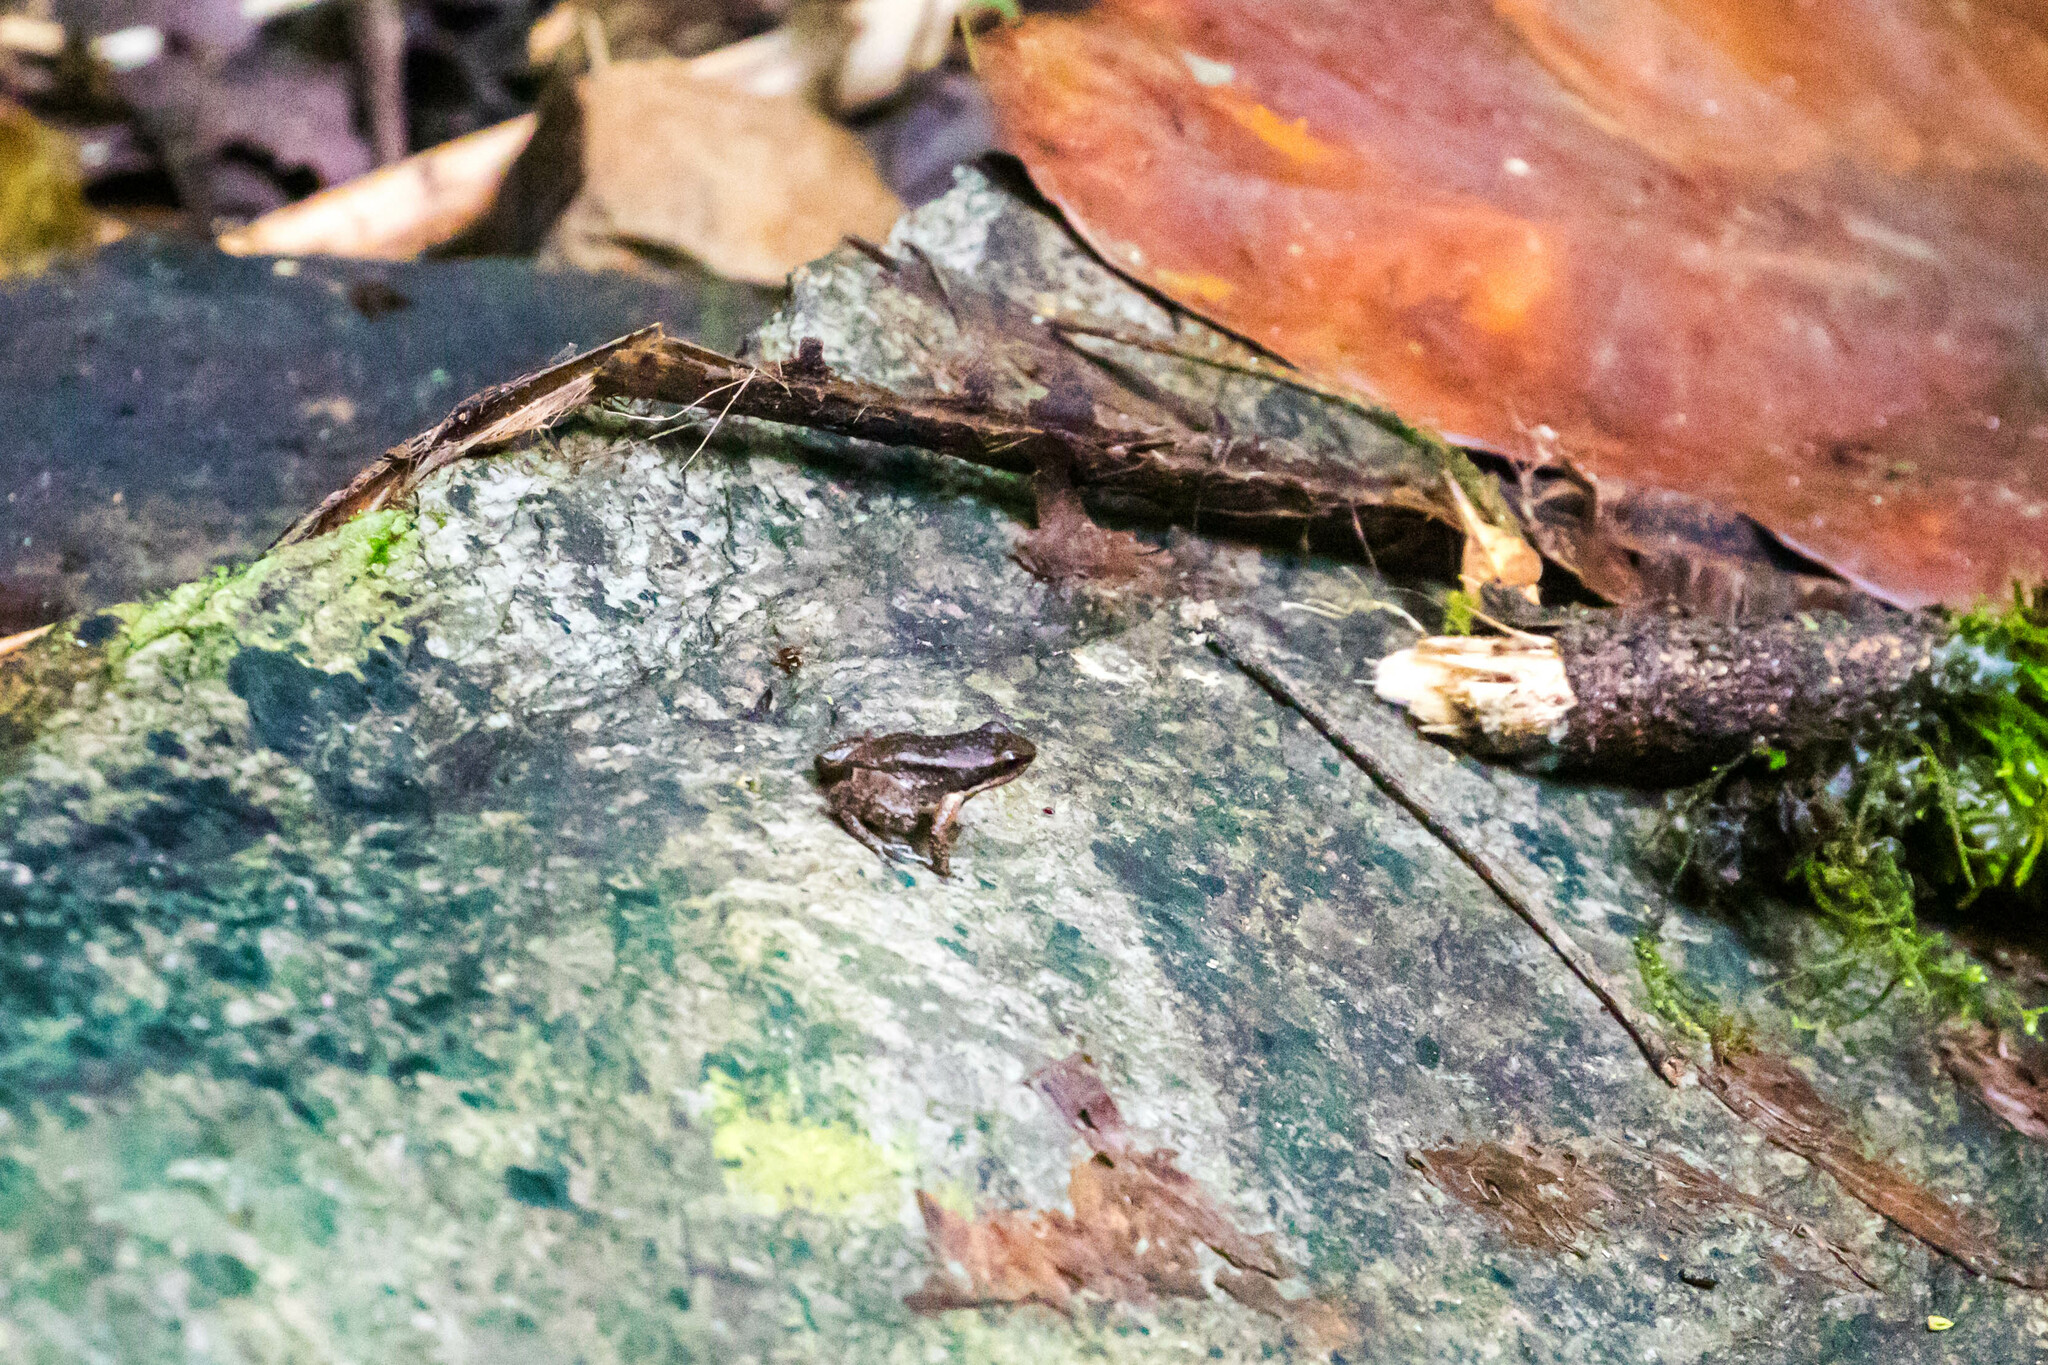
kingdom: Animalia
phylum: Chordata
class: Amphibia
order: Anura
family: Aromobatidae
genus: Mannophryne
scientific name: Mannophryne trinitatis
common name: Trinidad poison frog
